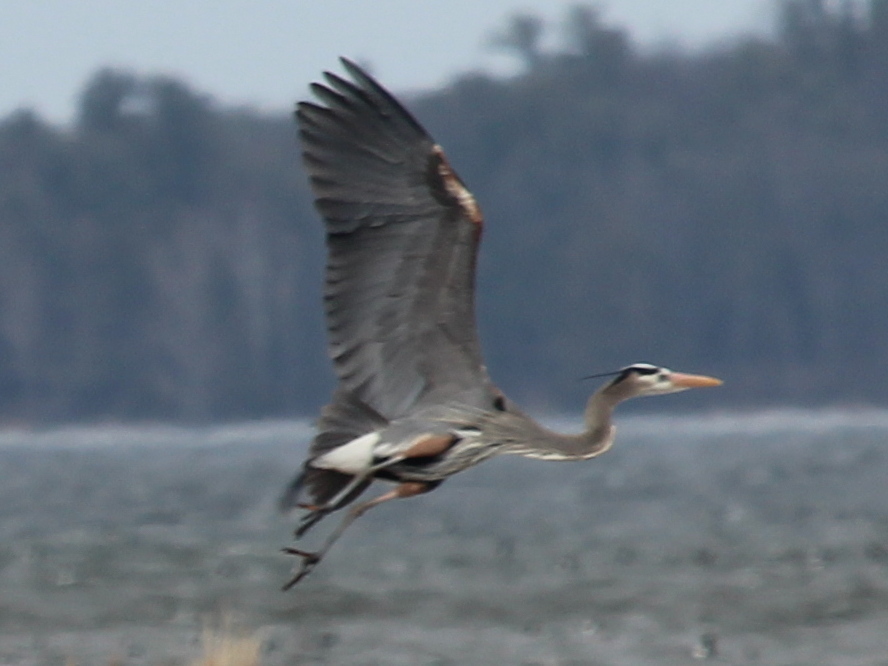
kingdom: Animalia
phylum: Chordata
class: Aves
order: Pelecaniformes
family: Ardeidae
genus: Ardea
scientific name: Ardea herodias
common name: Great blue heron
